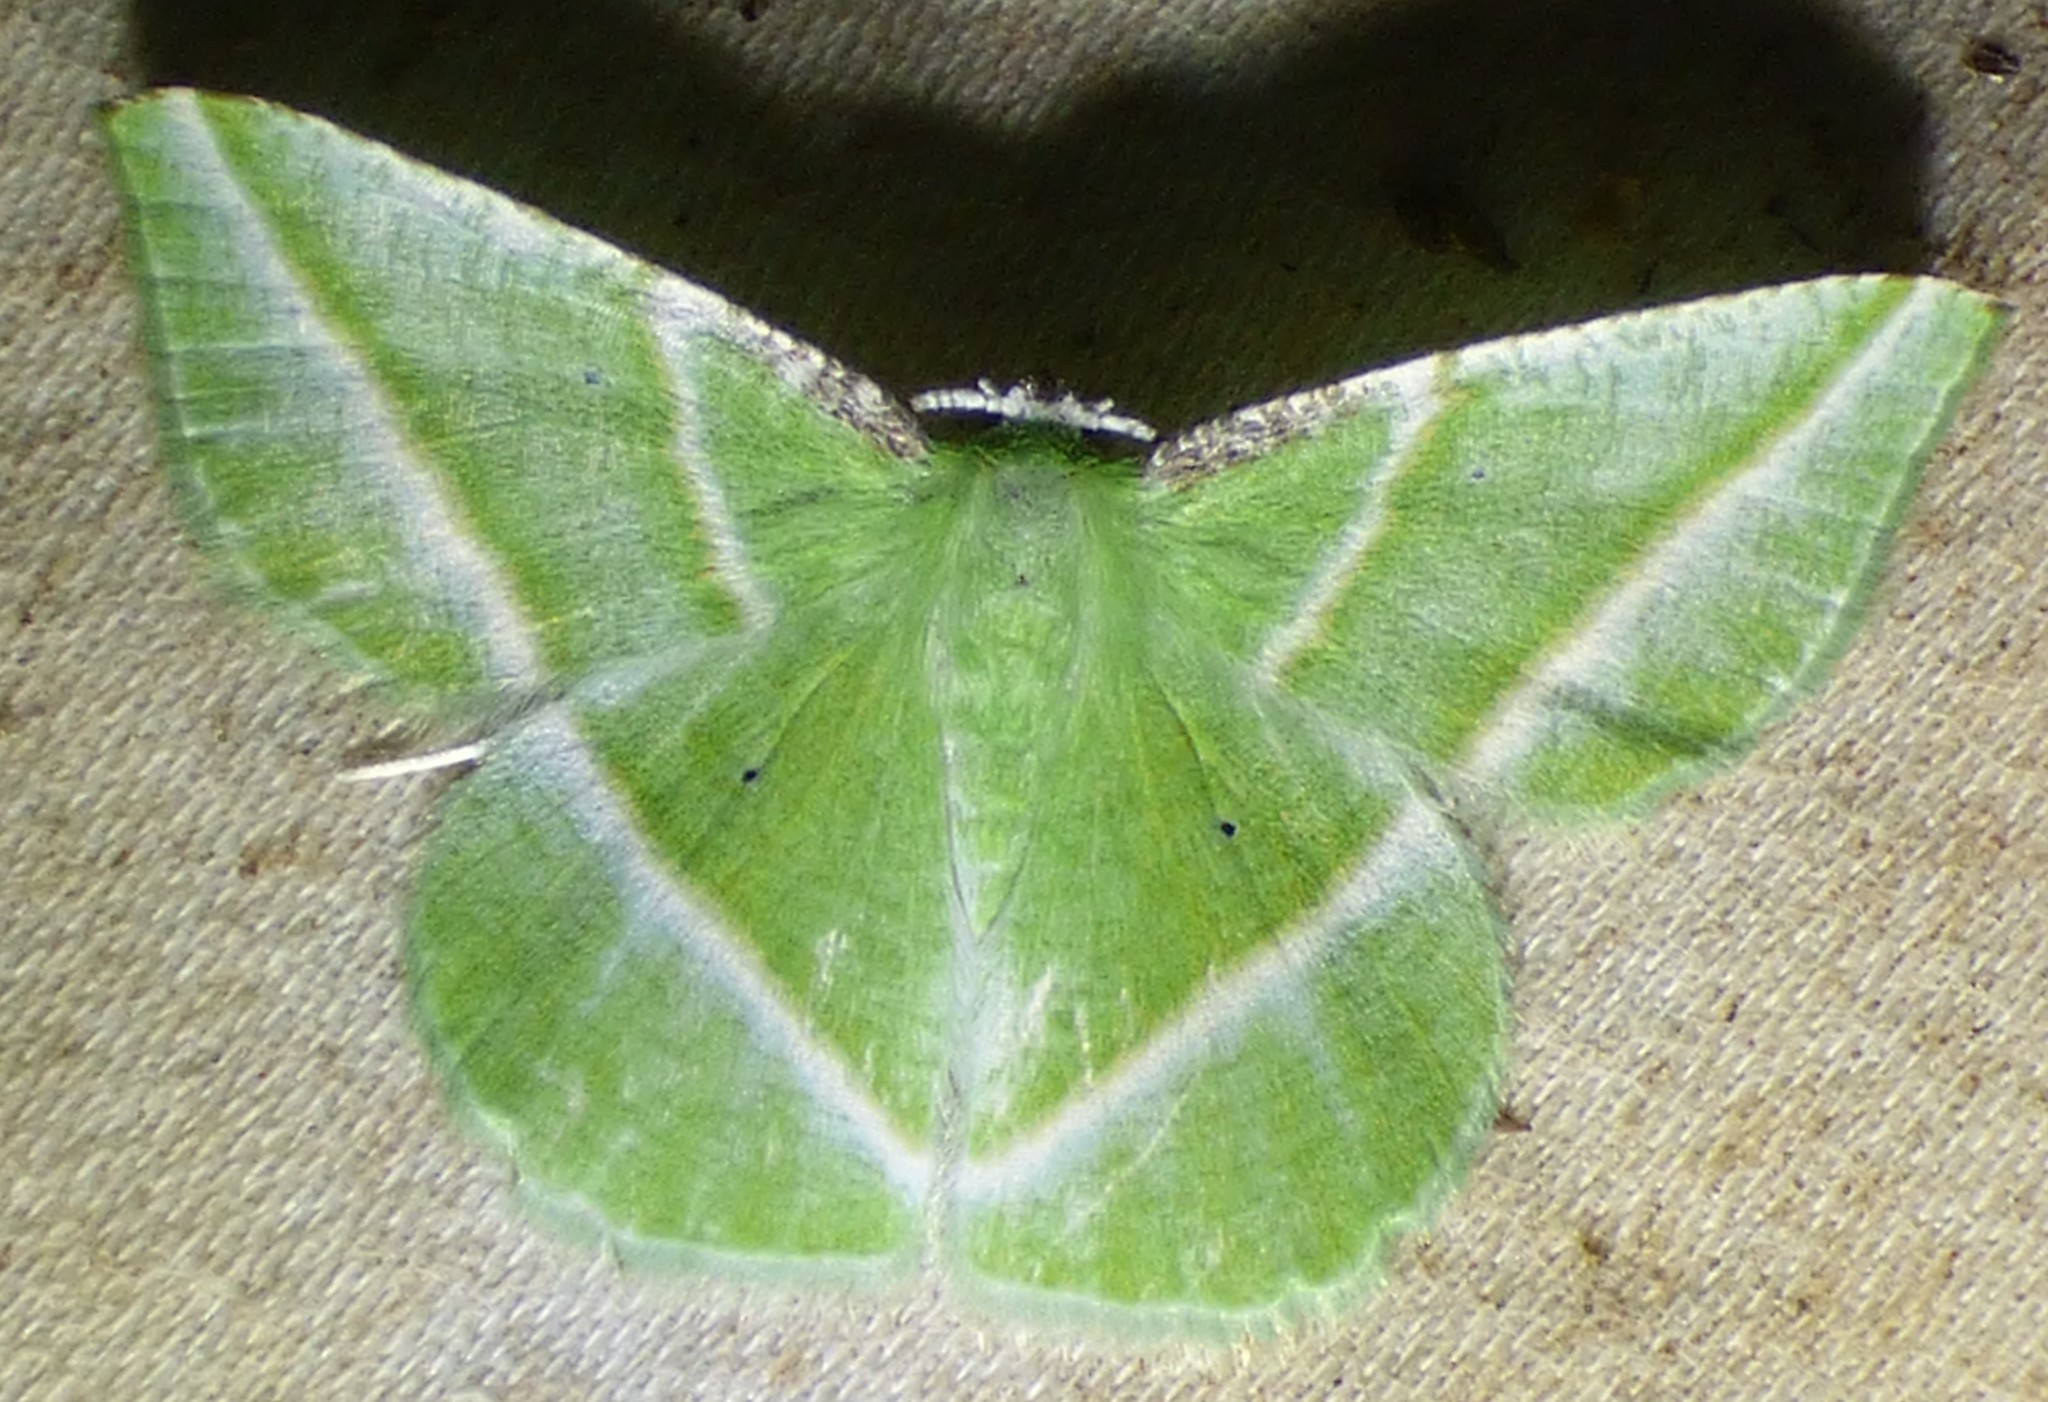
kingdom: Animalia
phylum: Arthropoda
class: Insecta
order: Lepidoptera
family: Geometridae
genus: Dichorda
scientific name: Dichorda iridaria
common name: Showy emerald
